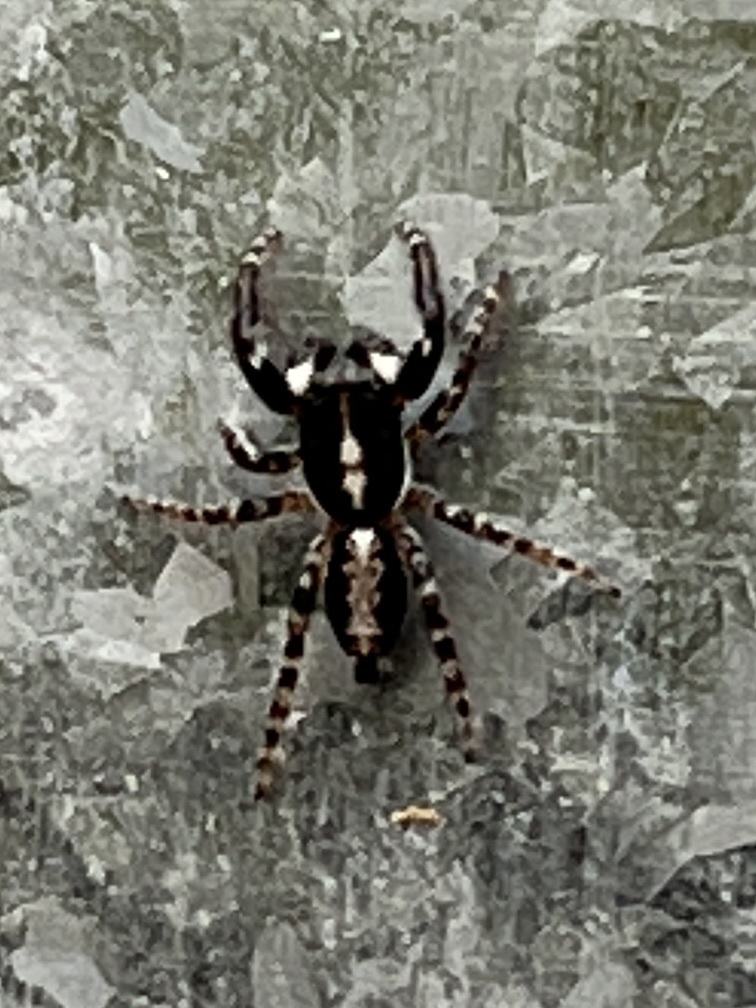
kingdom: Animalia
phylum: Arthropoda
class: Arachnida
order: Araneae
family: Salticidae
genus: Menemerus
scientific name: Menemerus lesnei
